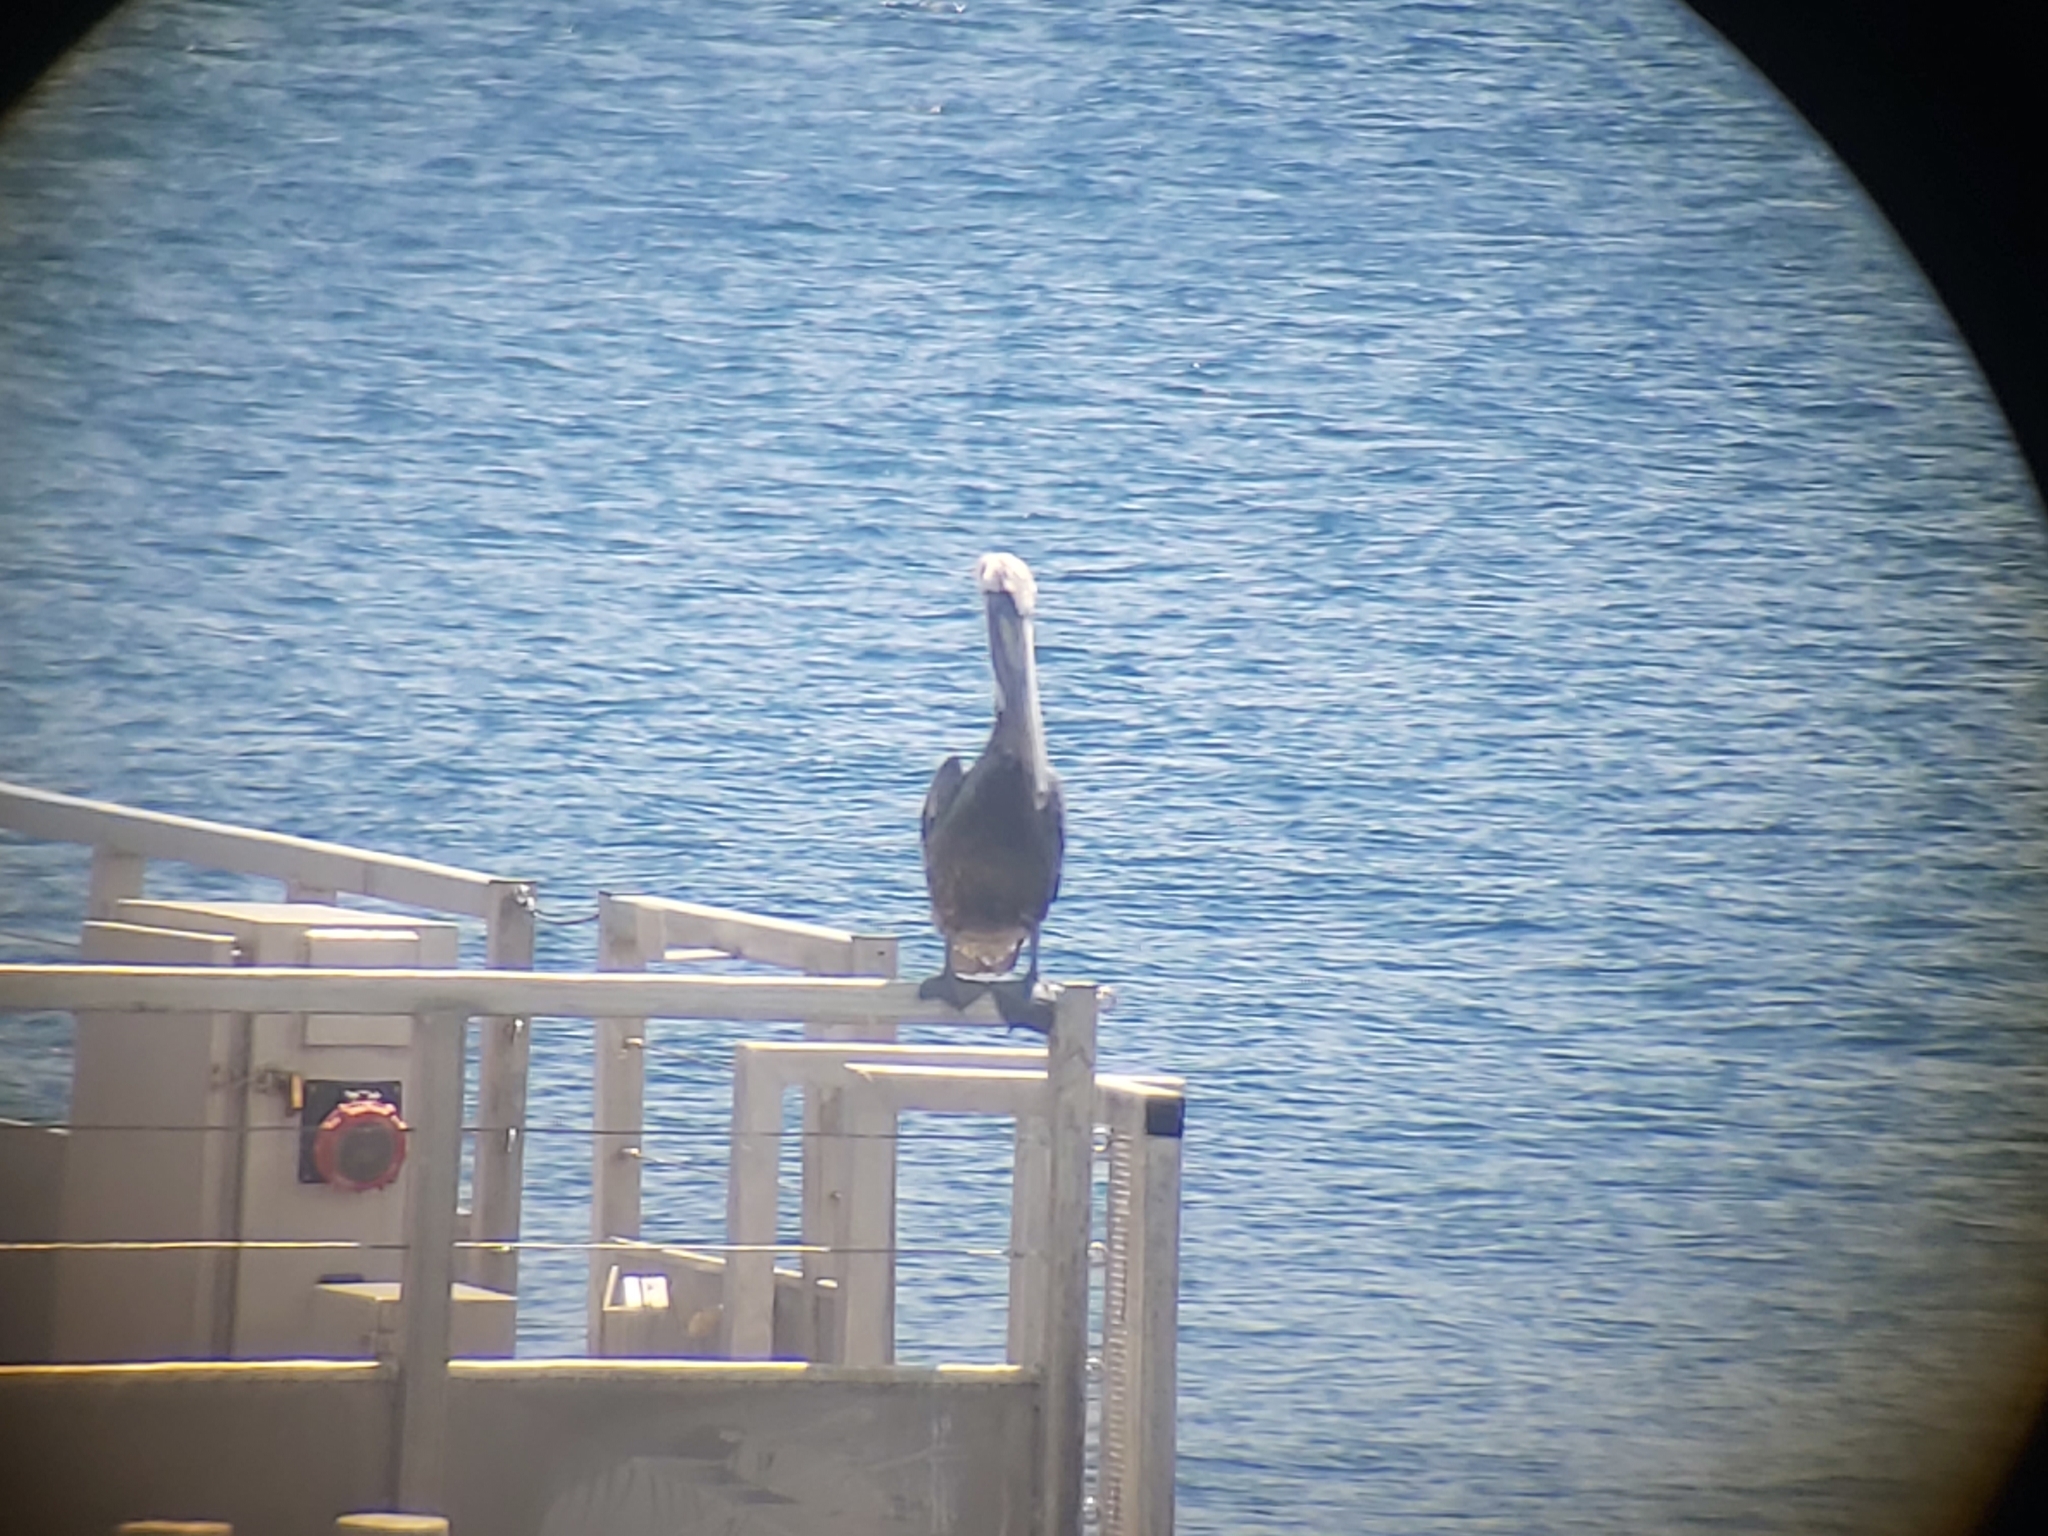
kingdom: Animalia
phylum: Chordata
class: Aves
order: Pelecaniformes
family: Pelecanidae
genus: Pelecanus
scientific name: Pelecanus occidentalis
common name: Brown pelican
